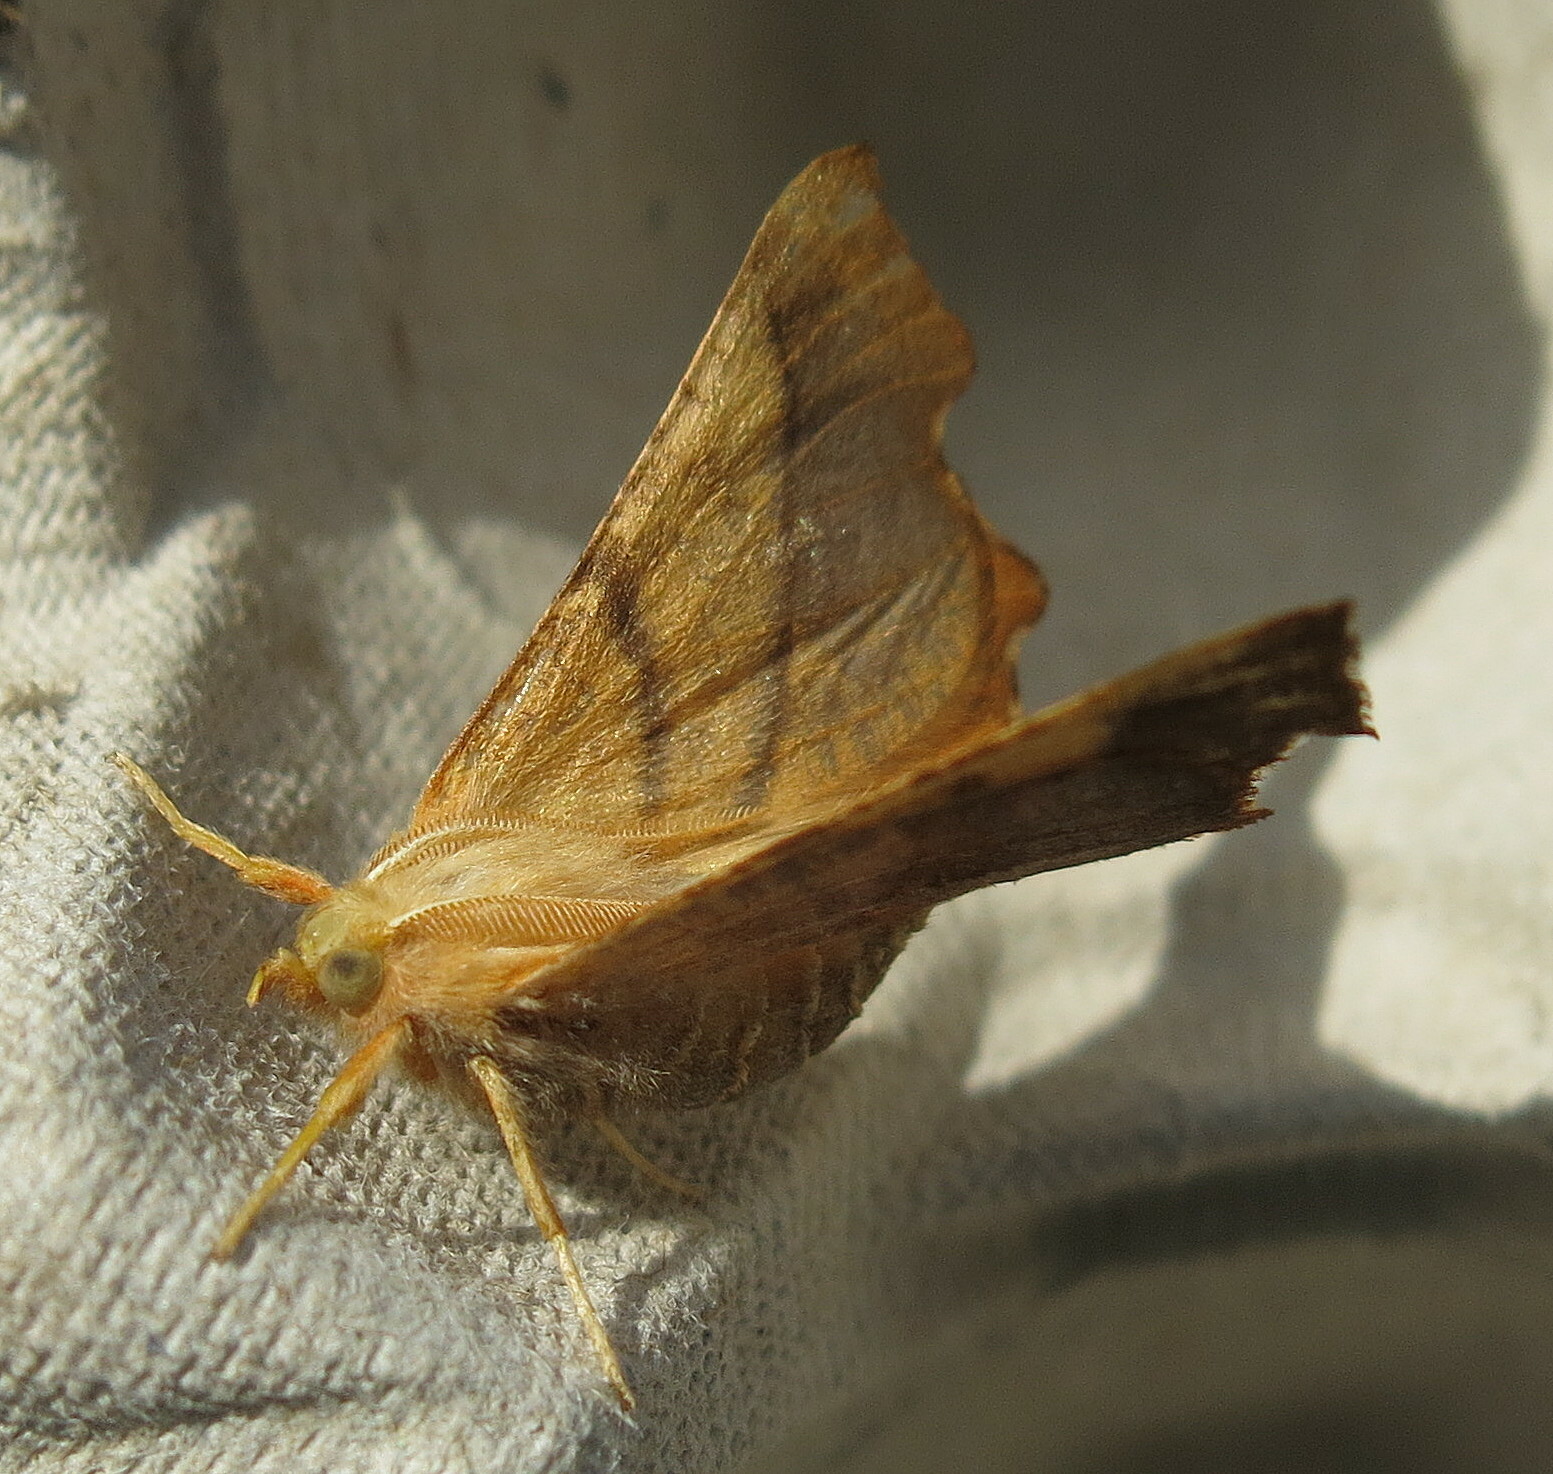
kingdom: Animalia
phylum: Arthropoda
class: Insecta
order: Lepidoptera
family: Geometridae
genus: Ennomos
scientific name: Ennomos fuscantaria
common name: Dusky thorn
